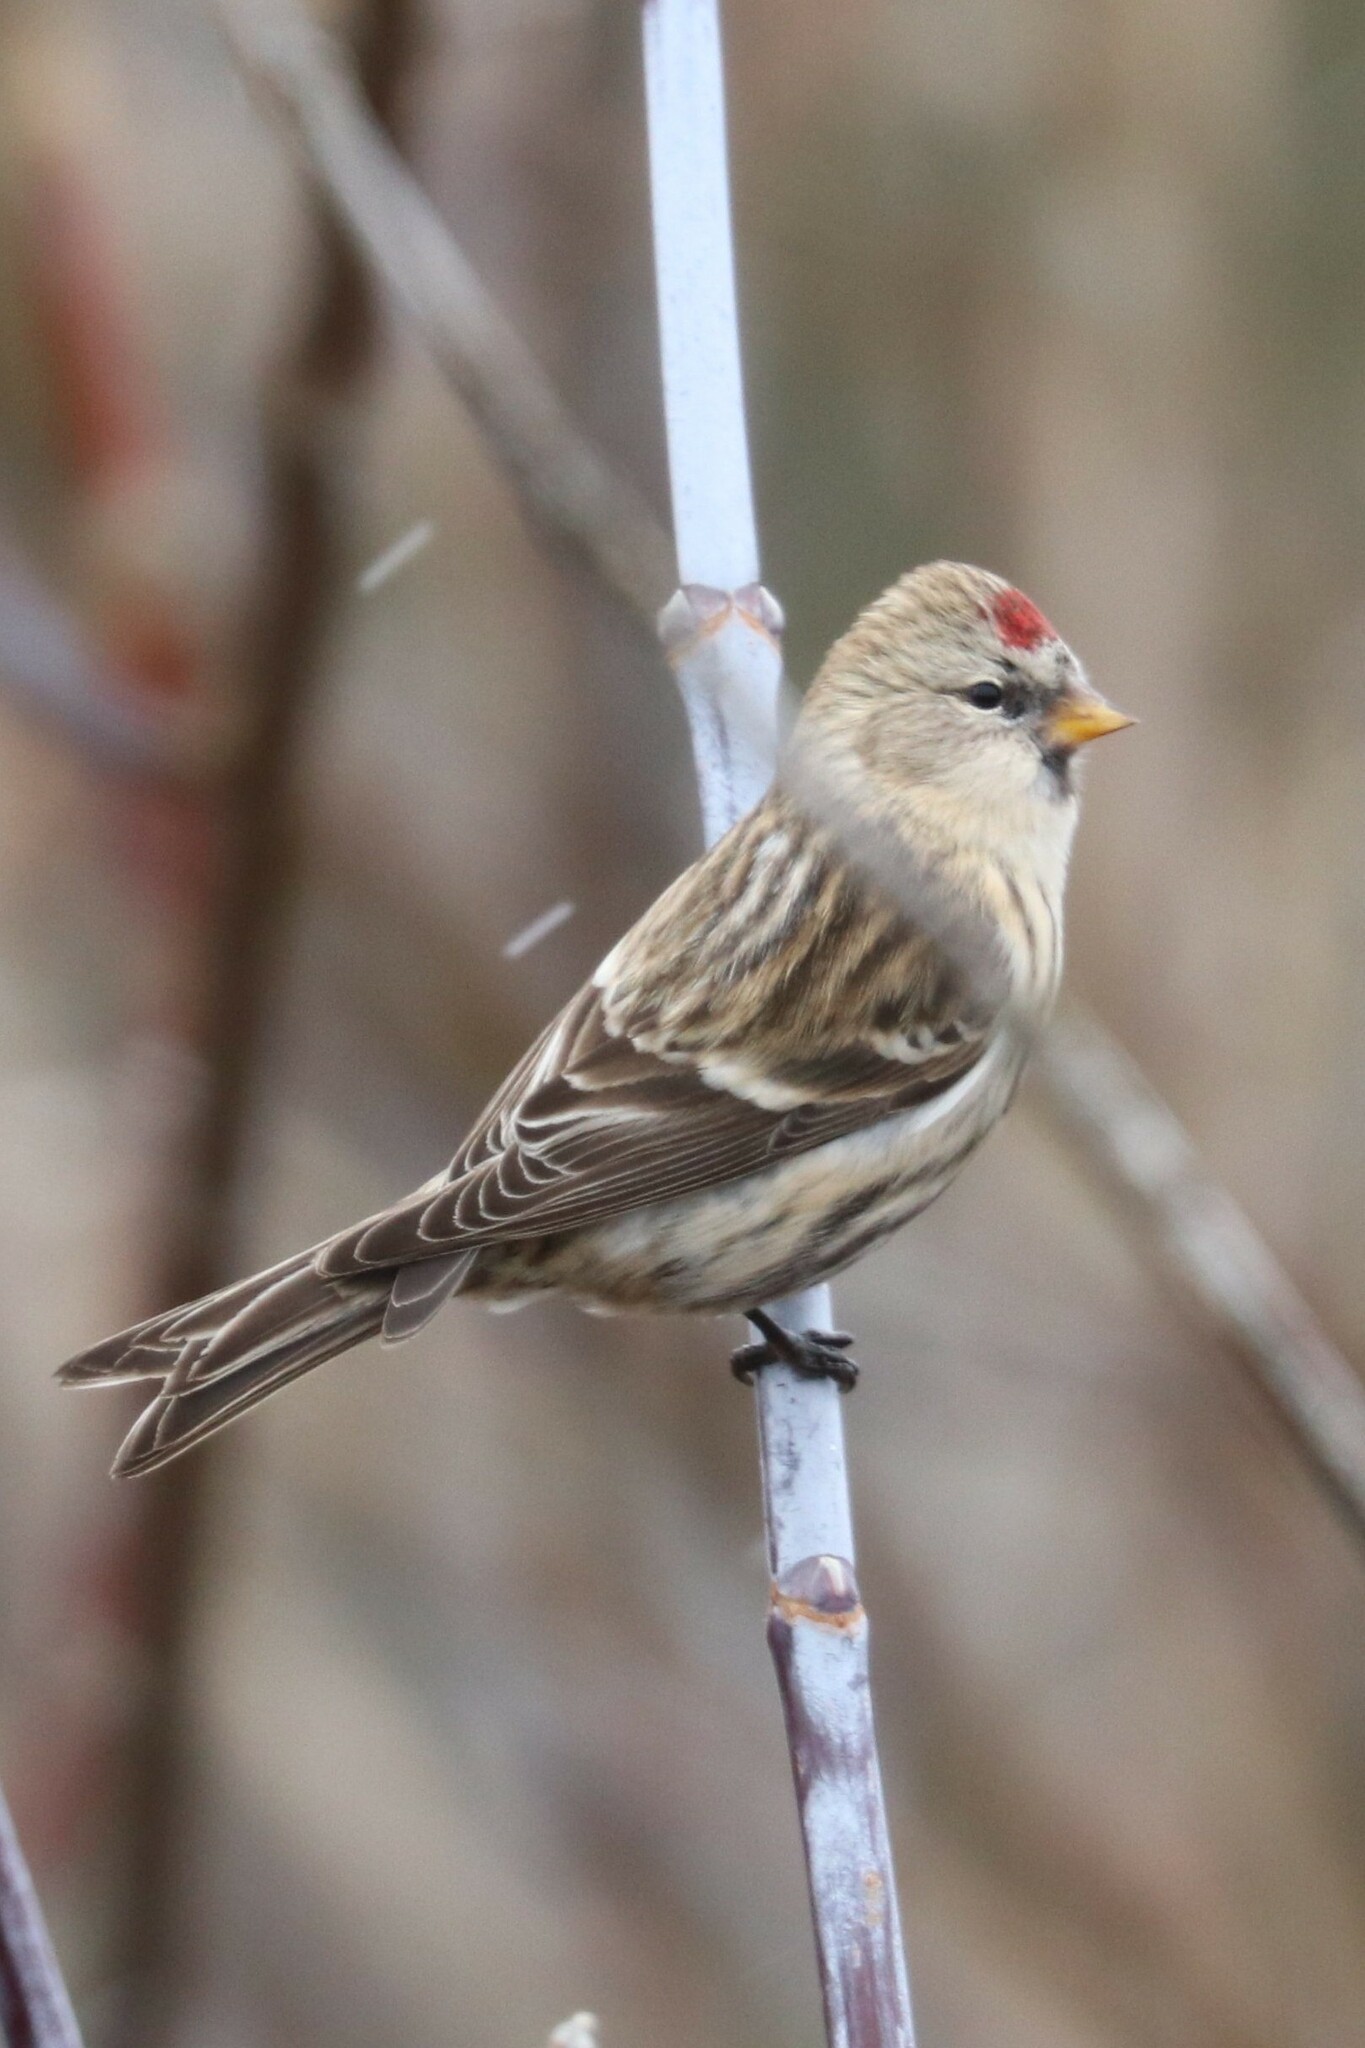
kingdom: Animalia
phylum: Chordata
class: Aves
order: Passeriformes
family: Fringillidae
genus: Acanthis
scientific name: Acanthis flammea
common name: Common redpoll
